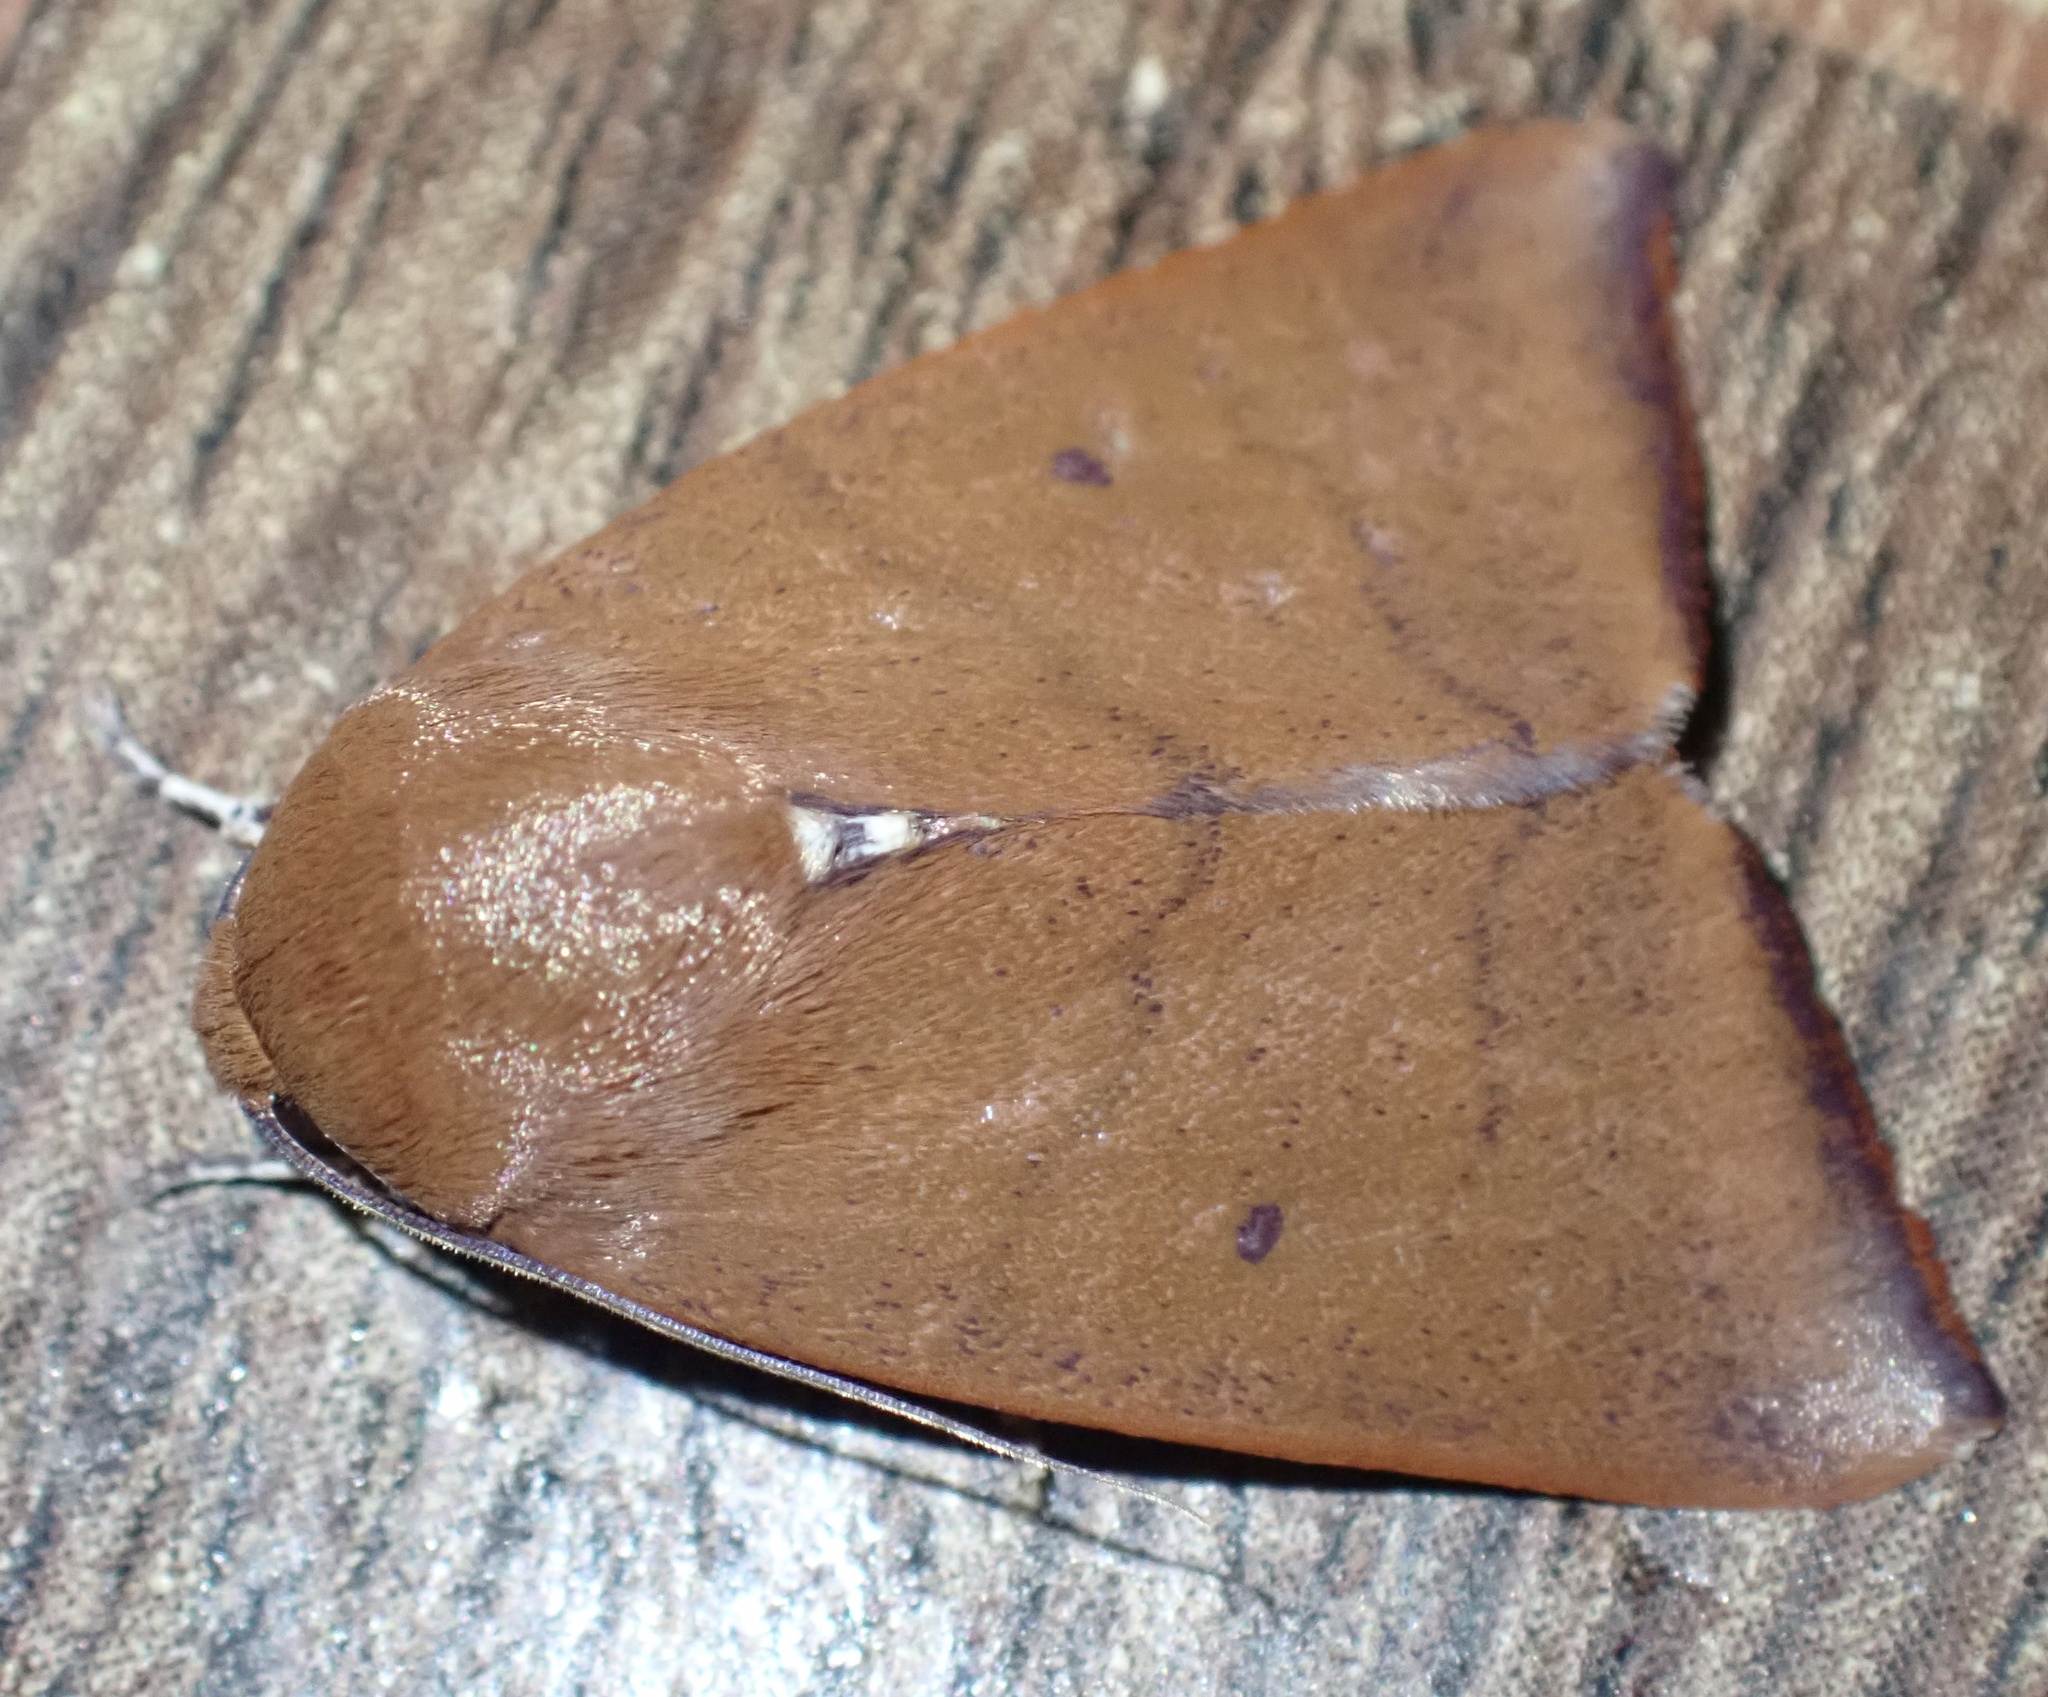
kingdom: Animalia
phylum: Arthropoda
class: Insecta
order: Lepidoptera
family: Nolidae
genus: Carea
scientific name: Carea unipunctata
